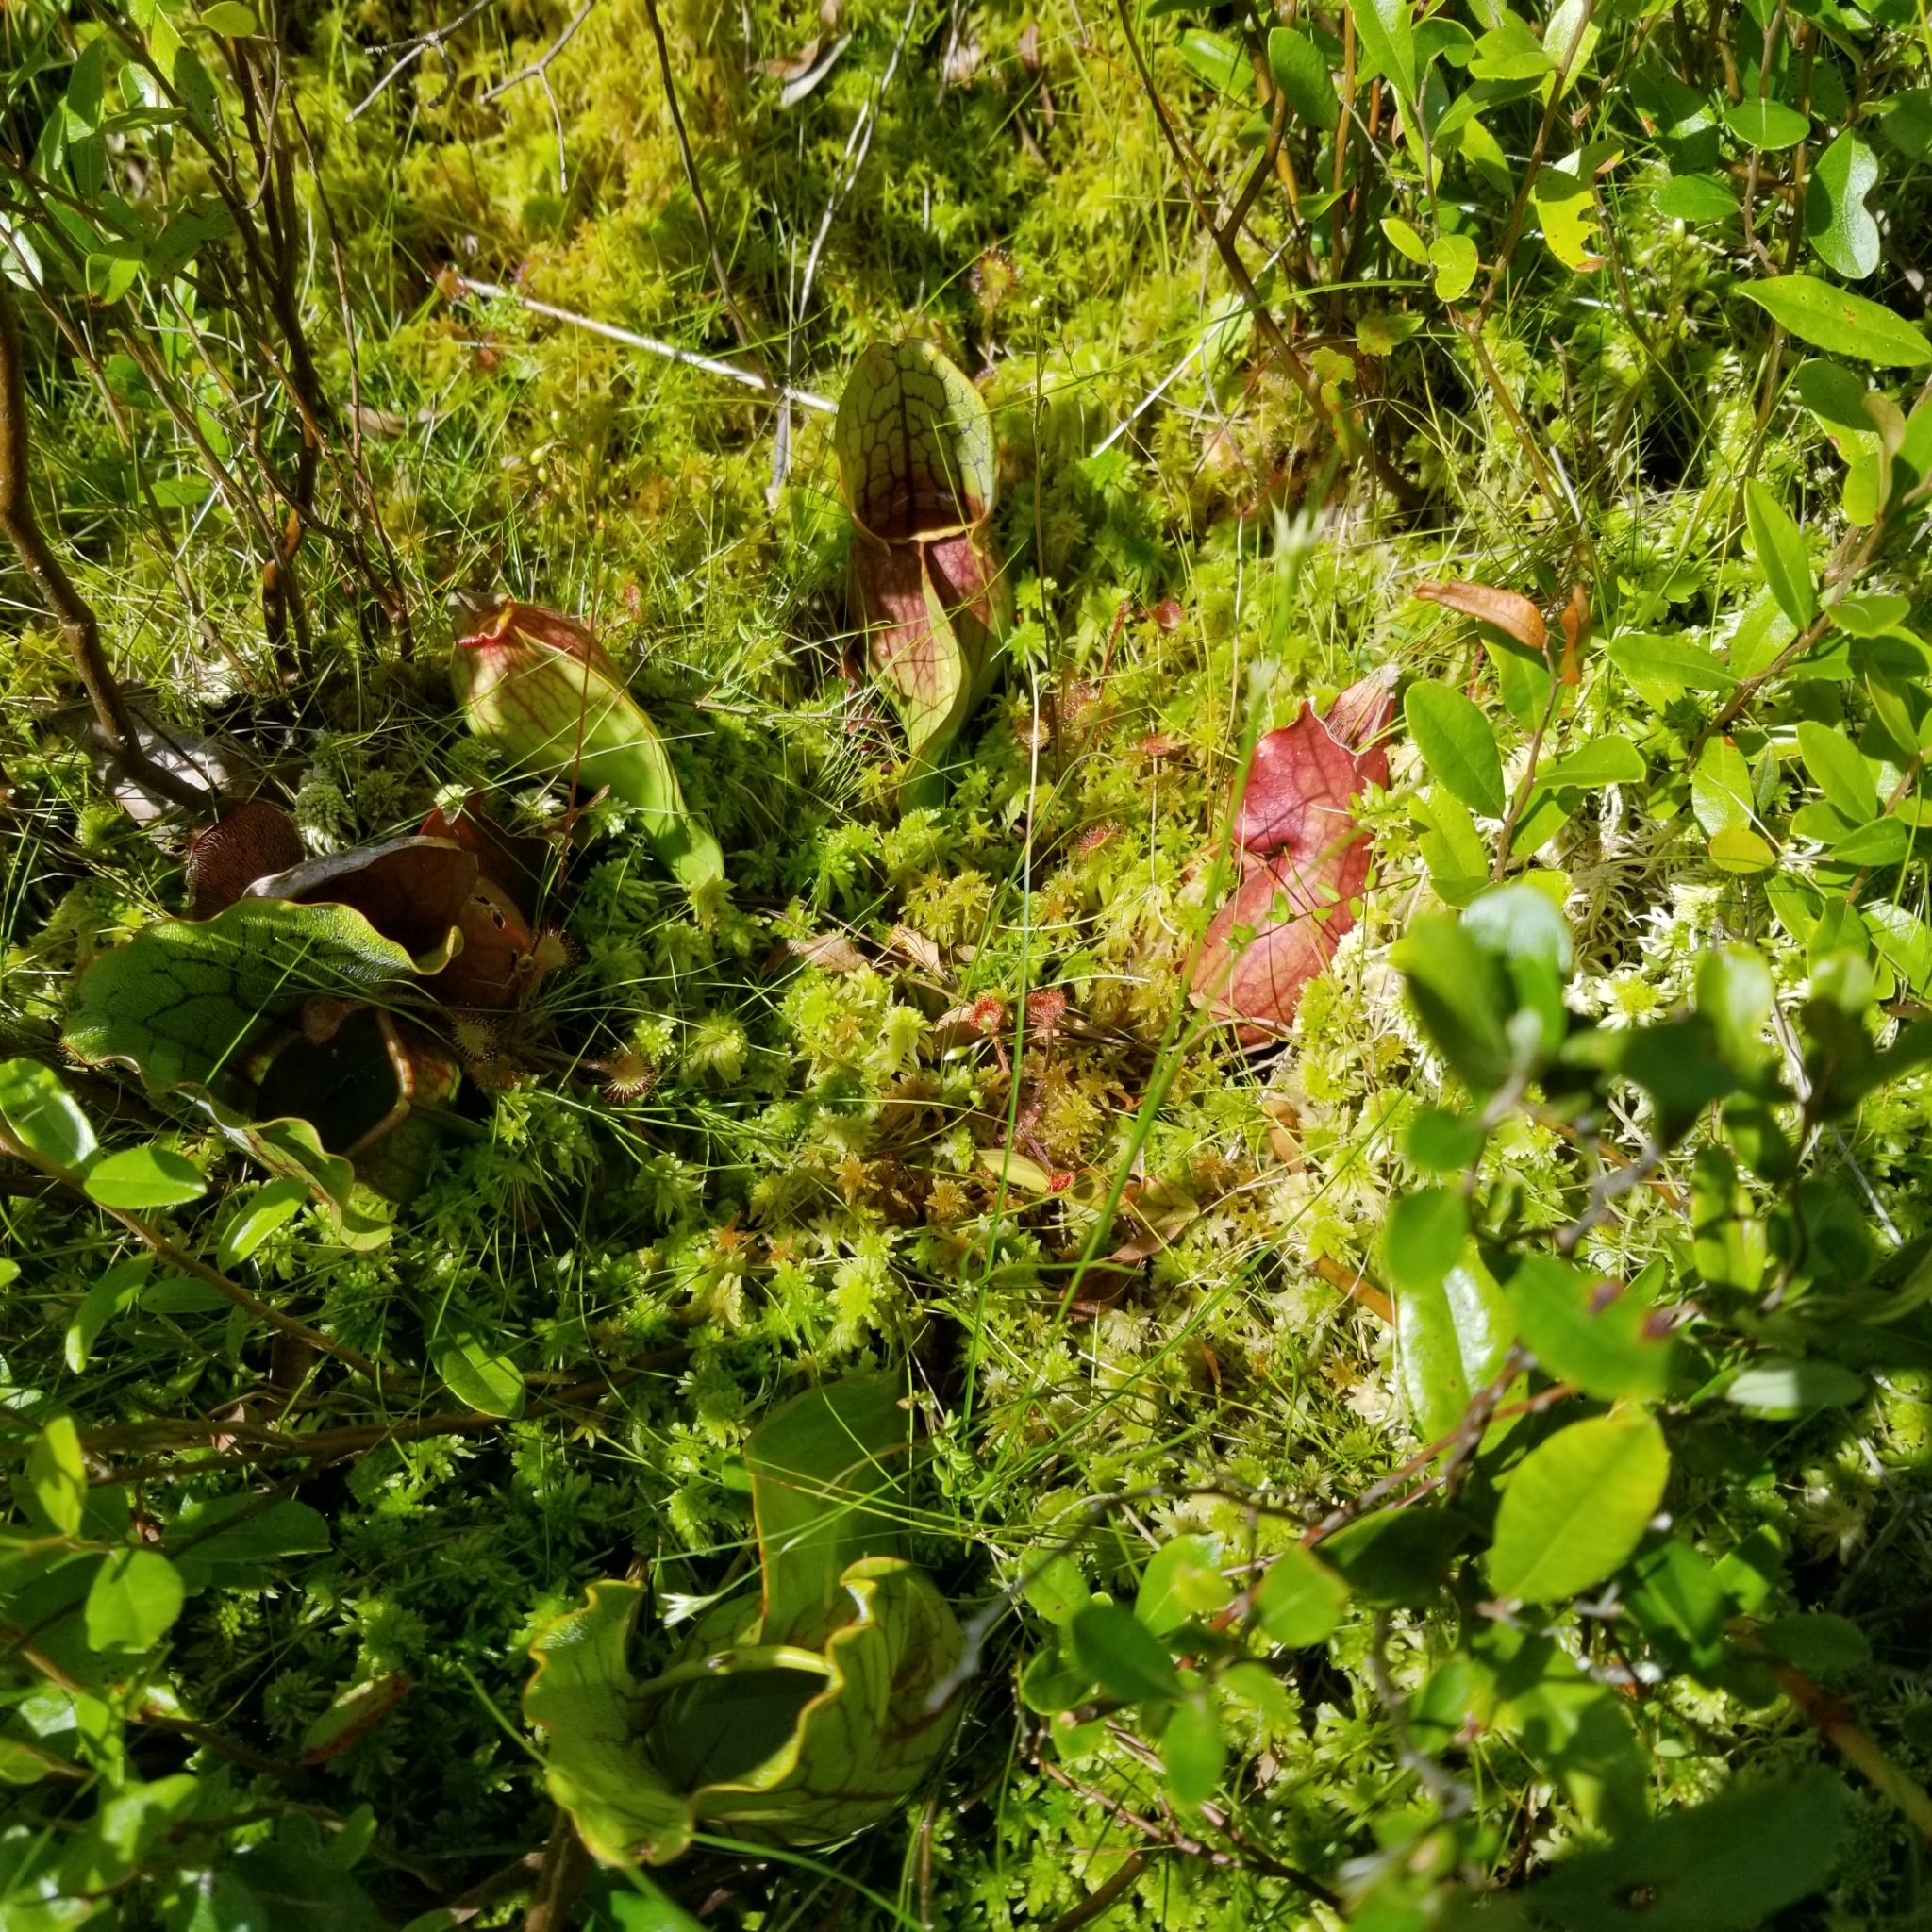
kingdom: Plantae
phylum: Tracheophyta
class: Magnoliopsida
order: Ericales
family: Sarraceniaceae
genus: Sarracenia
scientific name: Sarracenia purpurea
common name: Pitcherplant
